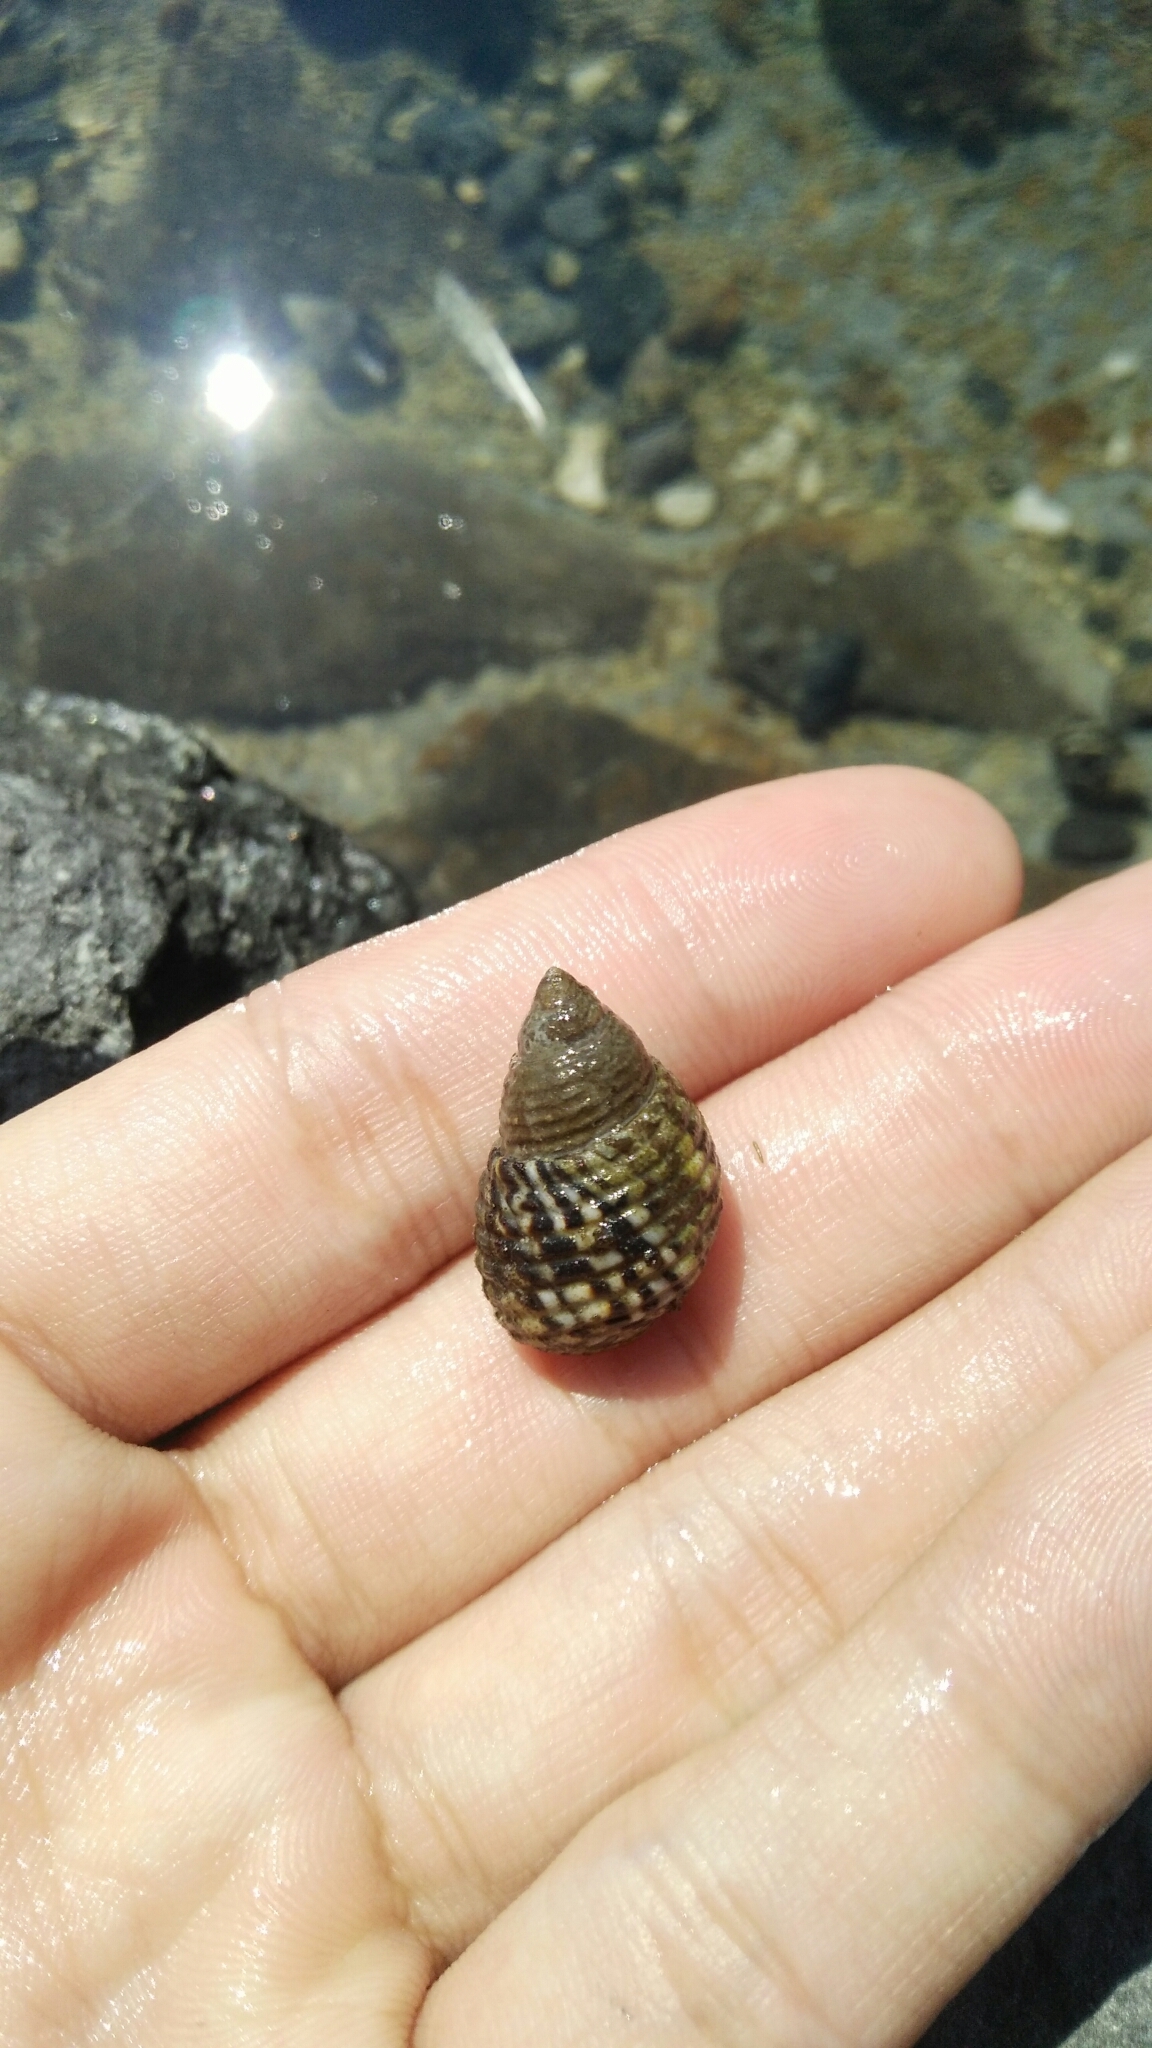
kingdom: Animalia
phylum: Mollusca
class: Gastropoda
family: Planaxidae
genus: Planaxis
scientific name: Planaxis sulcatus
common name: Furrowed planaxis
